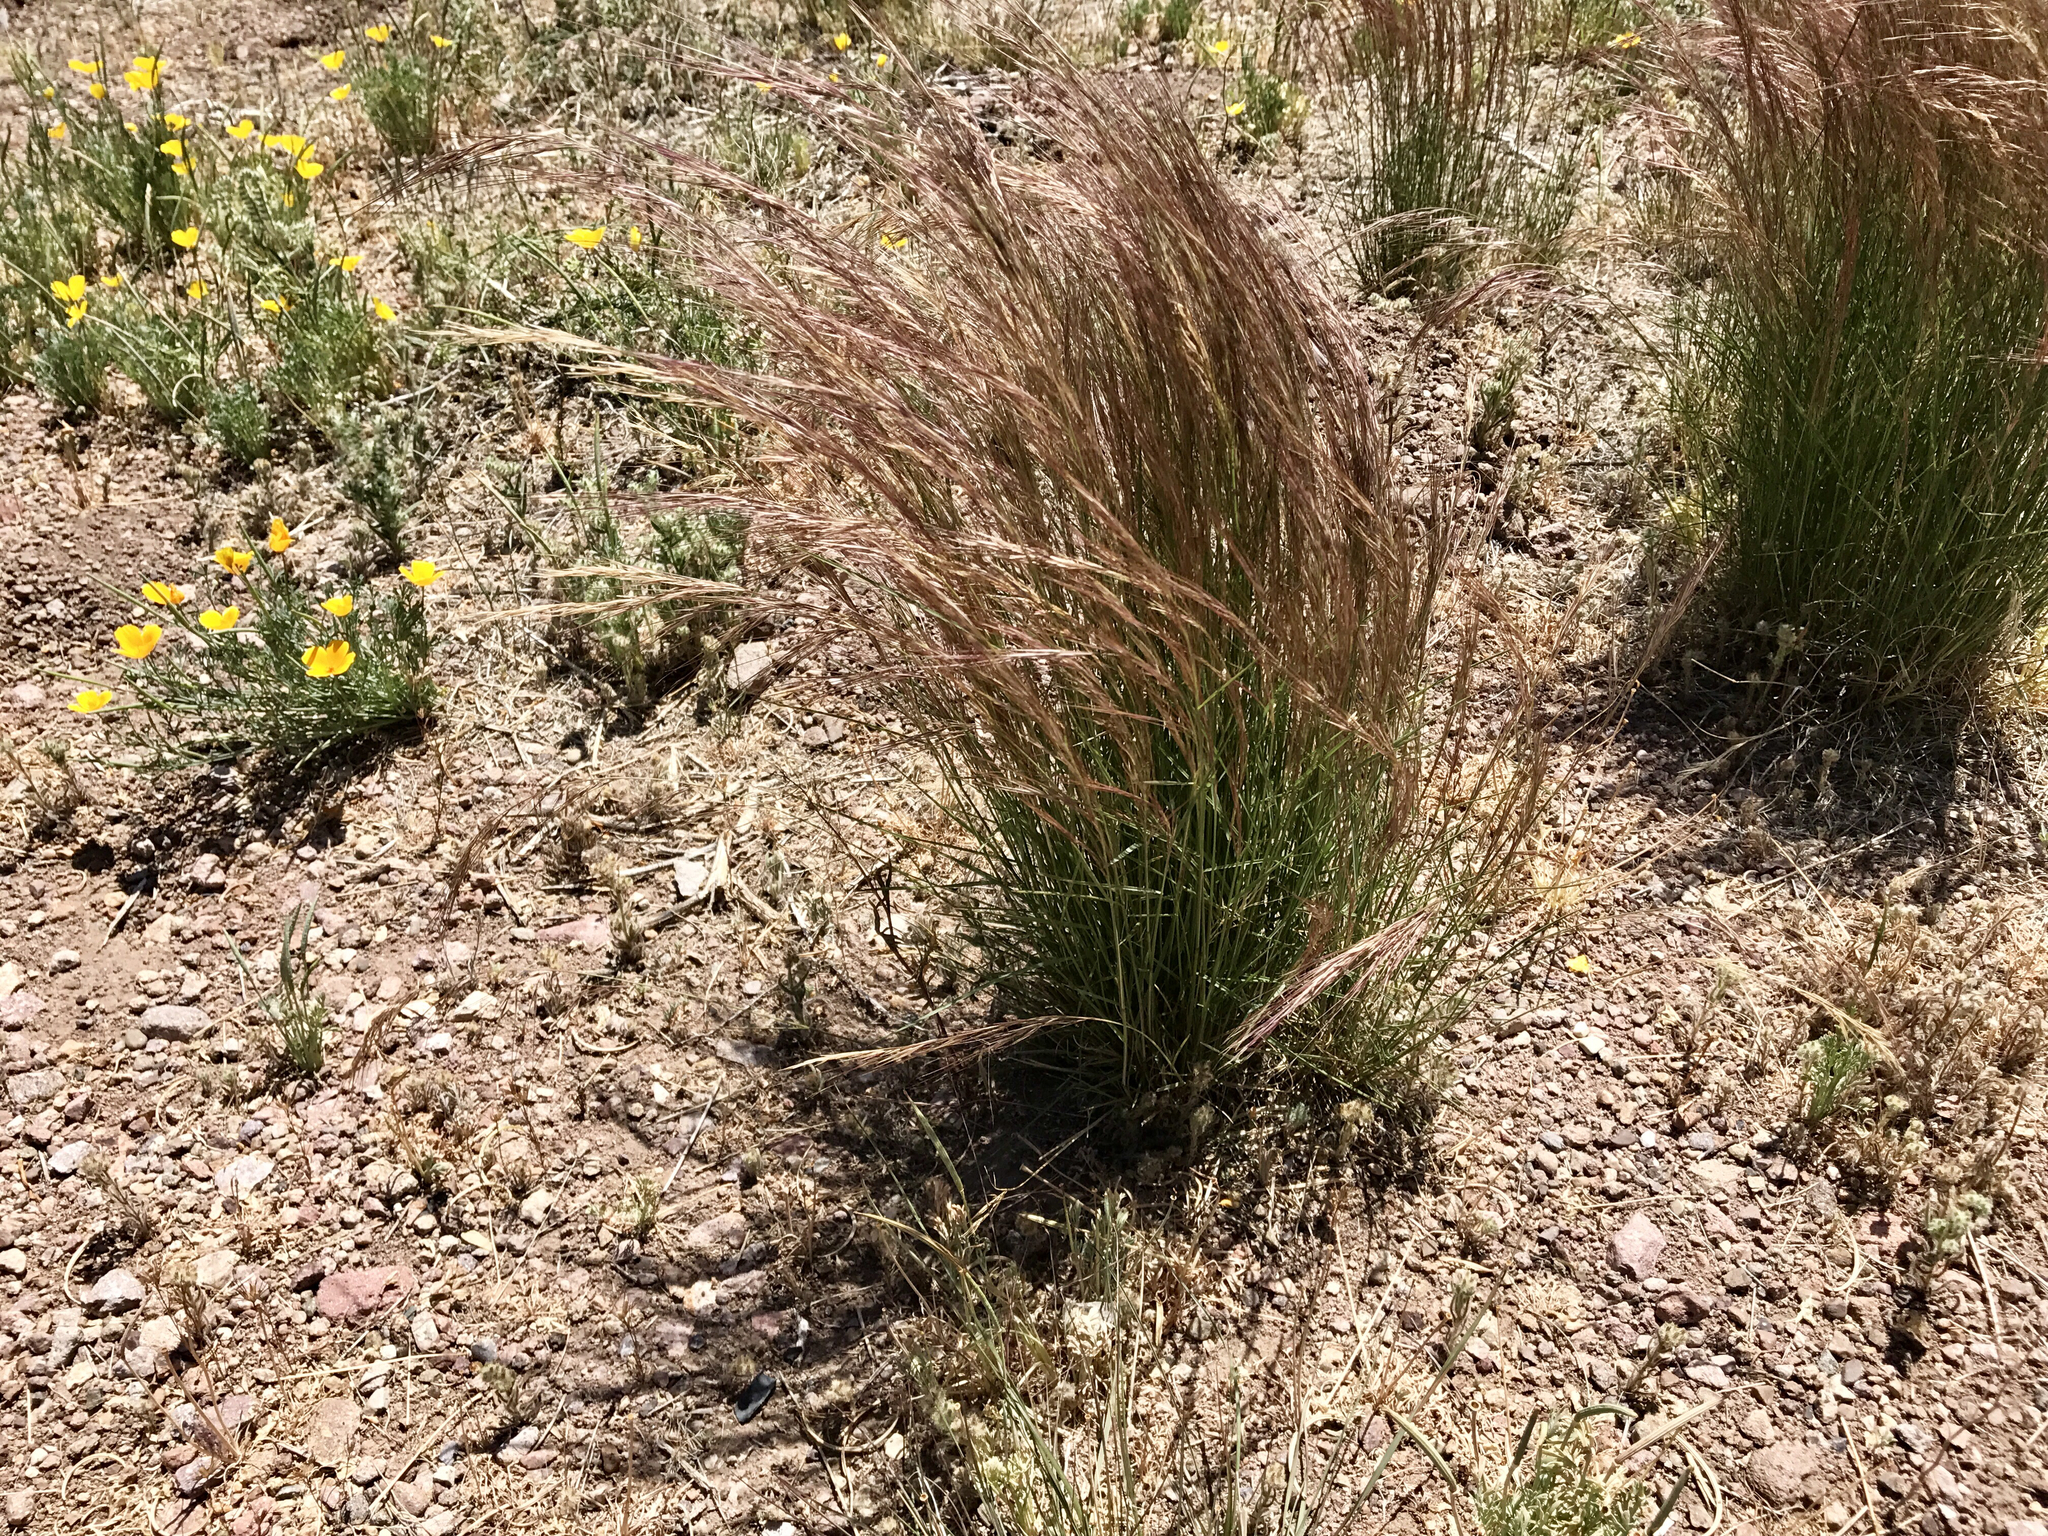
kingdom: Plantae
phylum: Tracheophyta
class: Liliopsida
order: Poales
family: Poaceae
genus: Aristida
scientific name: Aristida purpurea
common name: Purple threeawn
